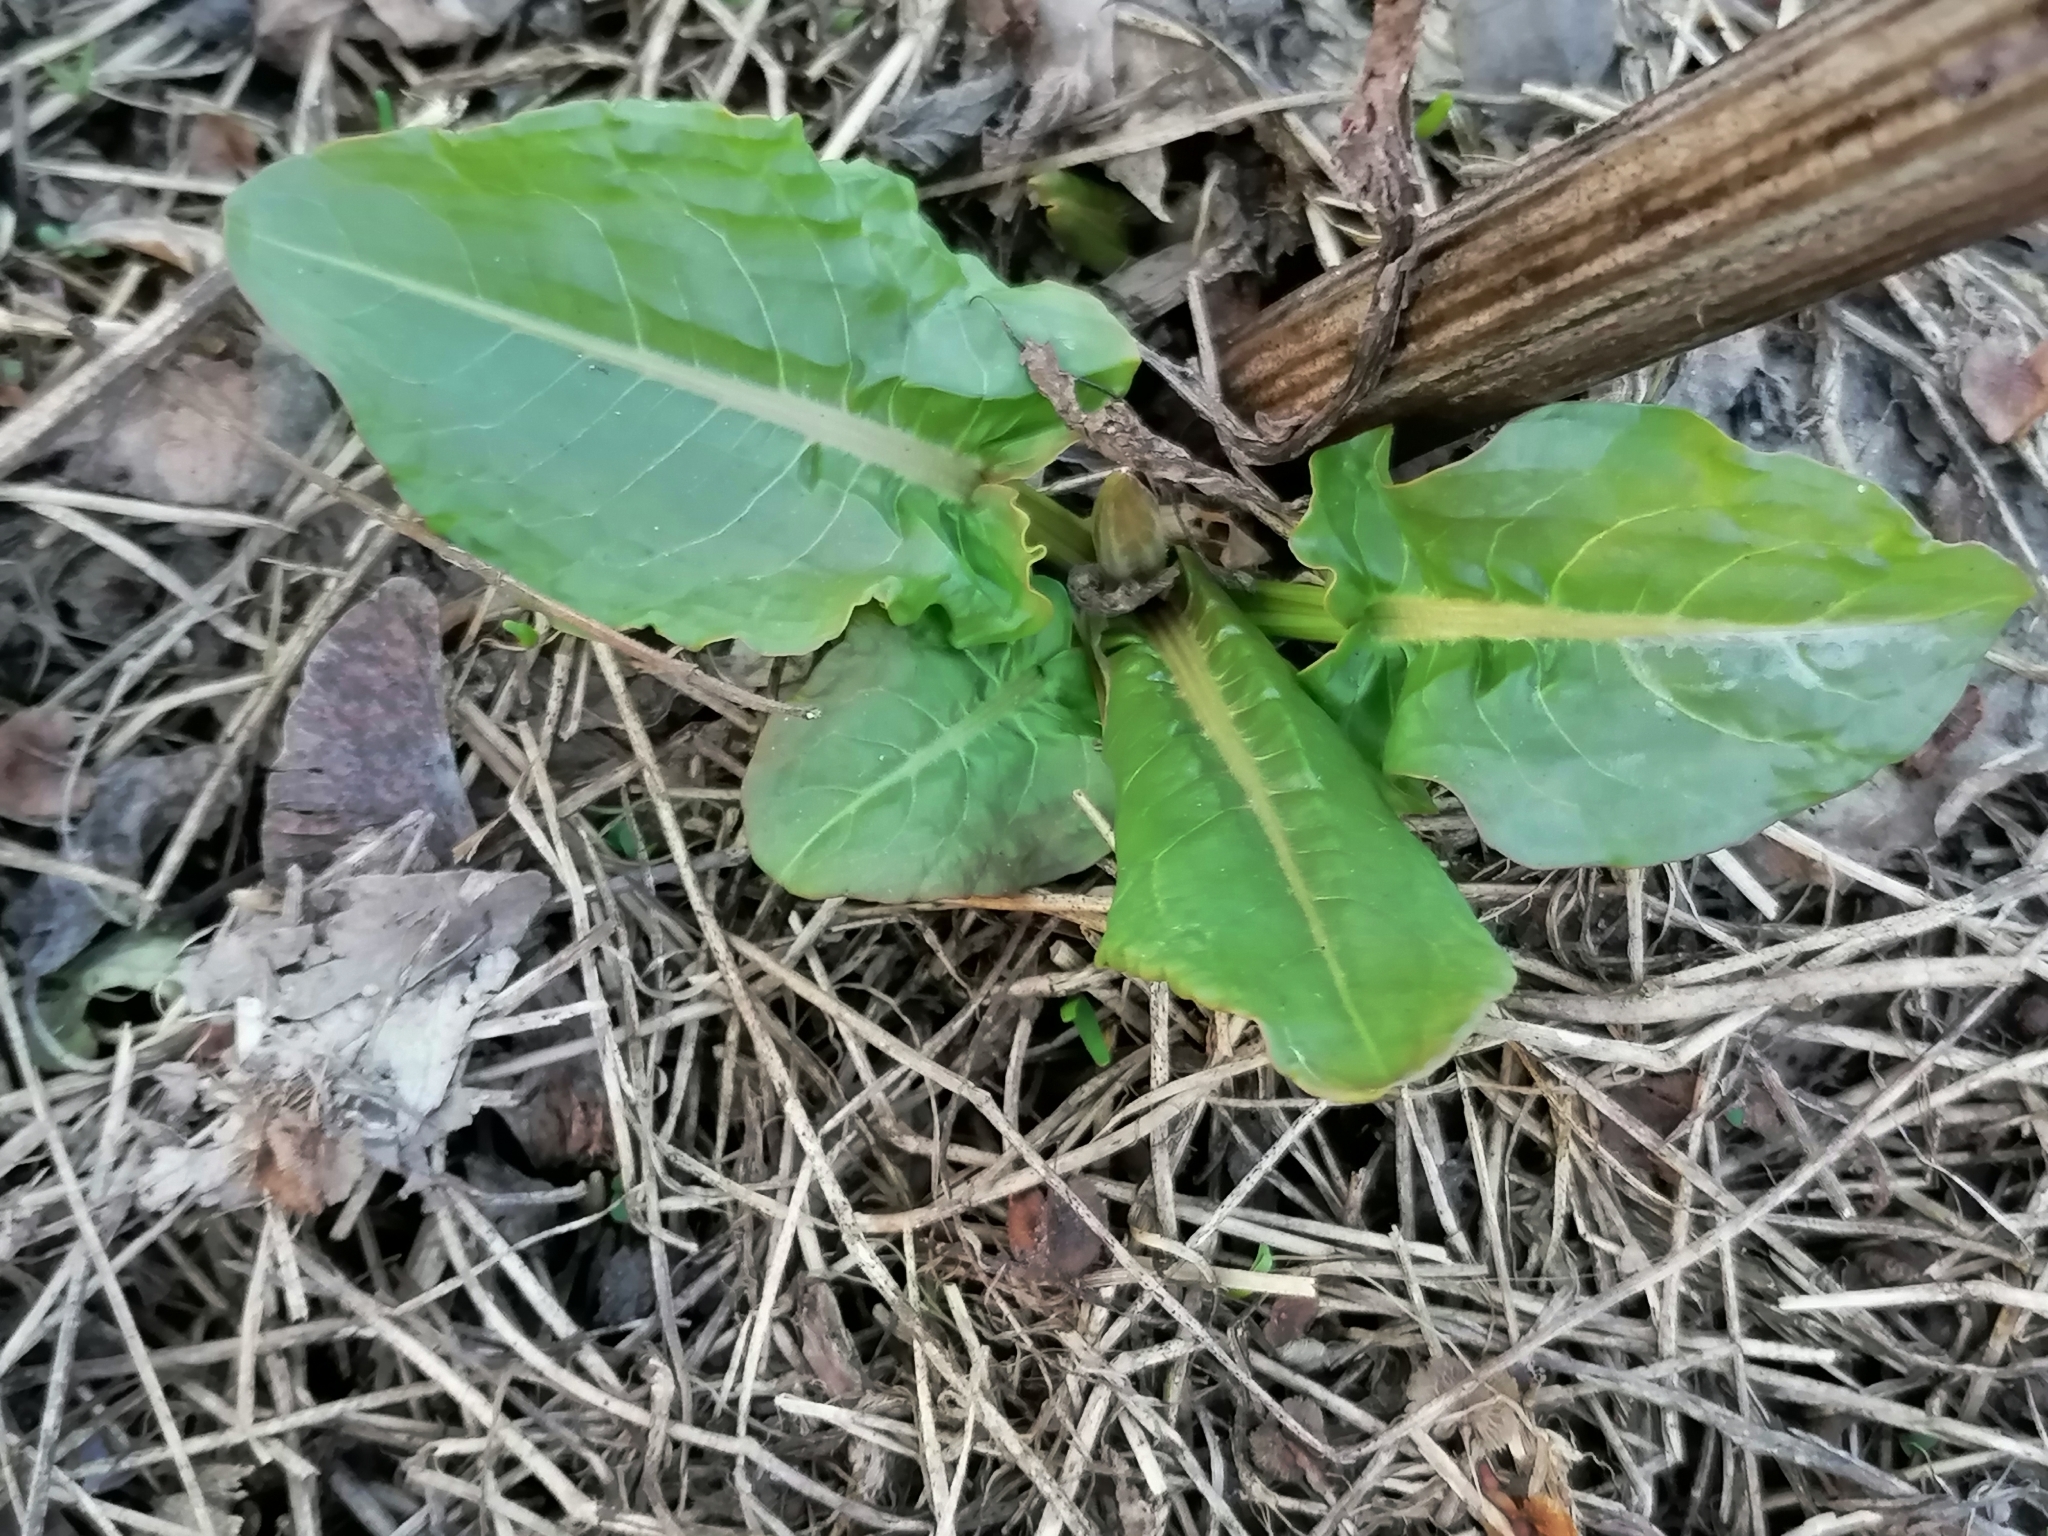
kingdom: Plantae
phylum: Tracheophyta
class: Magnoliopsida
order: Caryophyllales
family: Polygonaceae
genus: Rumex
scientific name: Rumex obtusifolius
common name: Bitter dock
